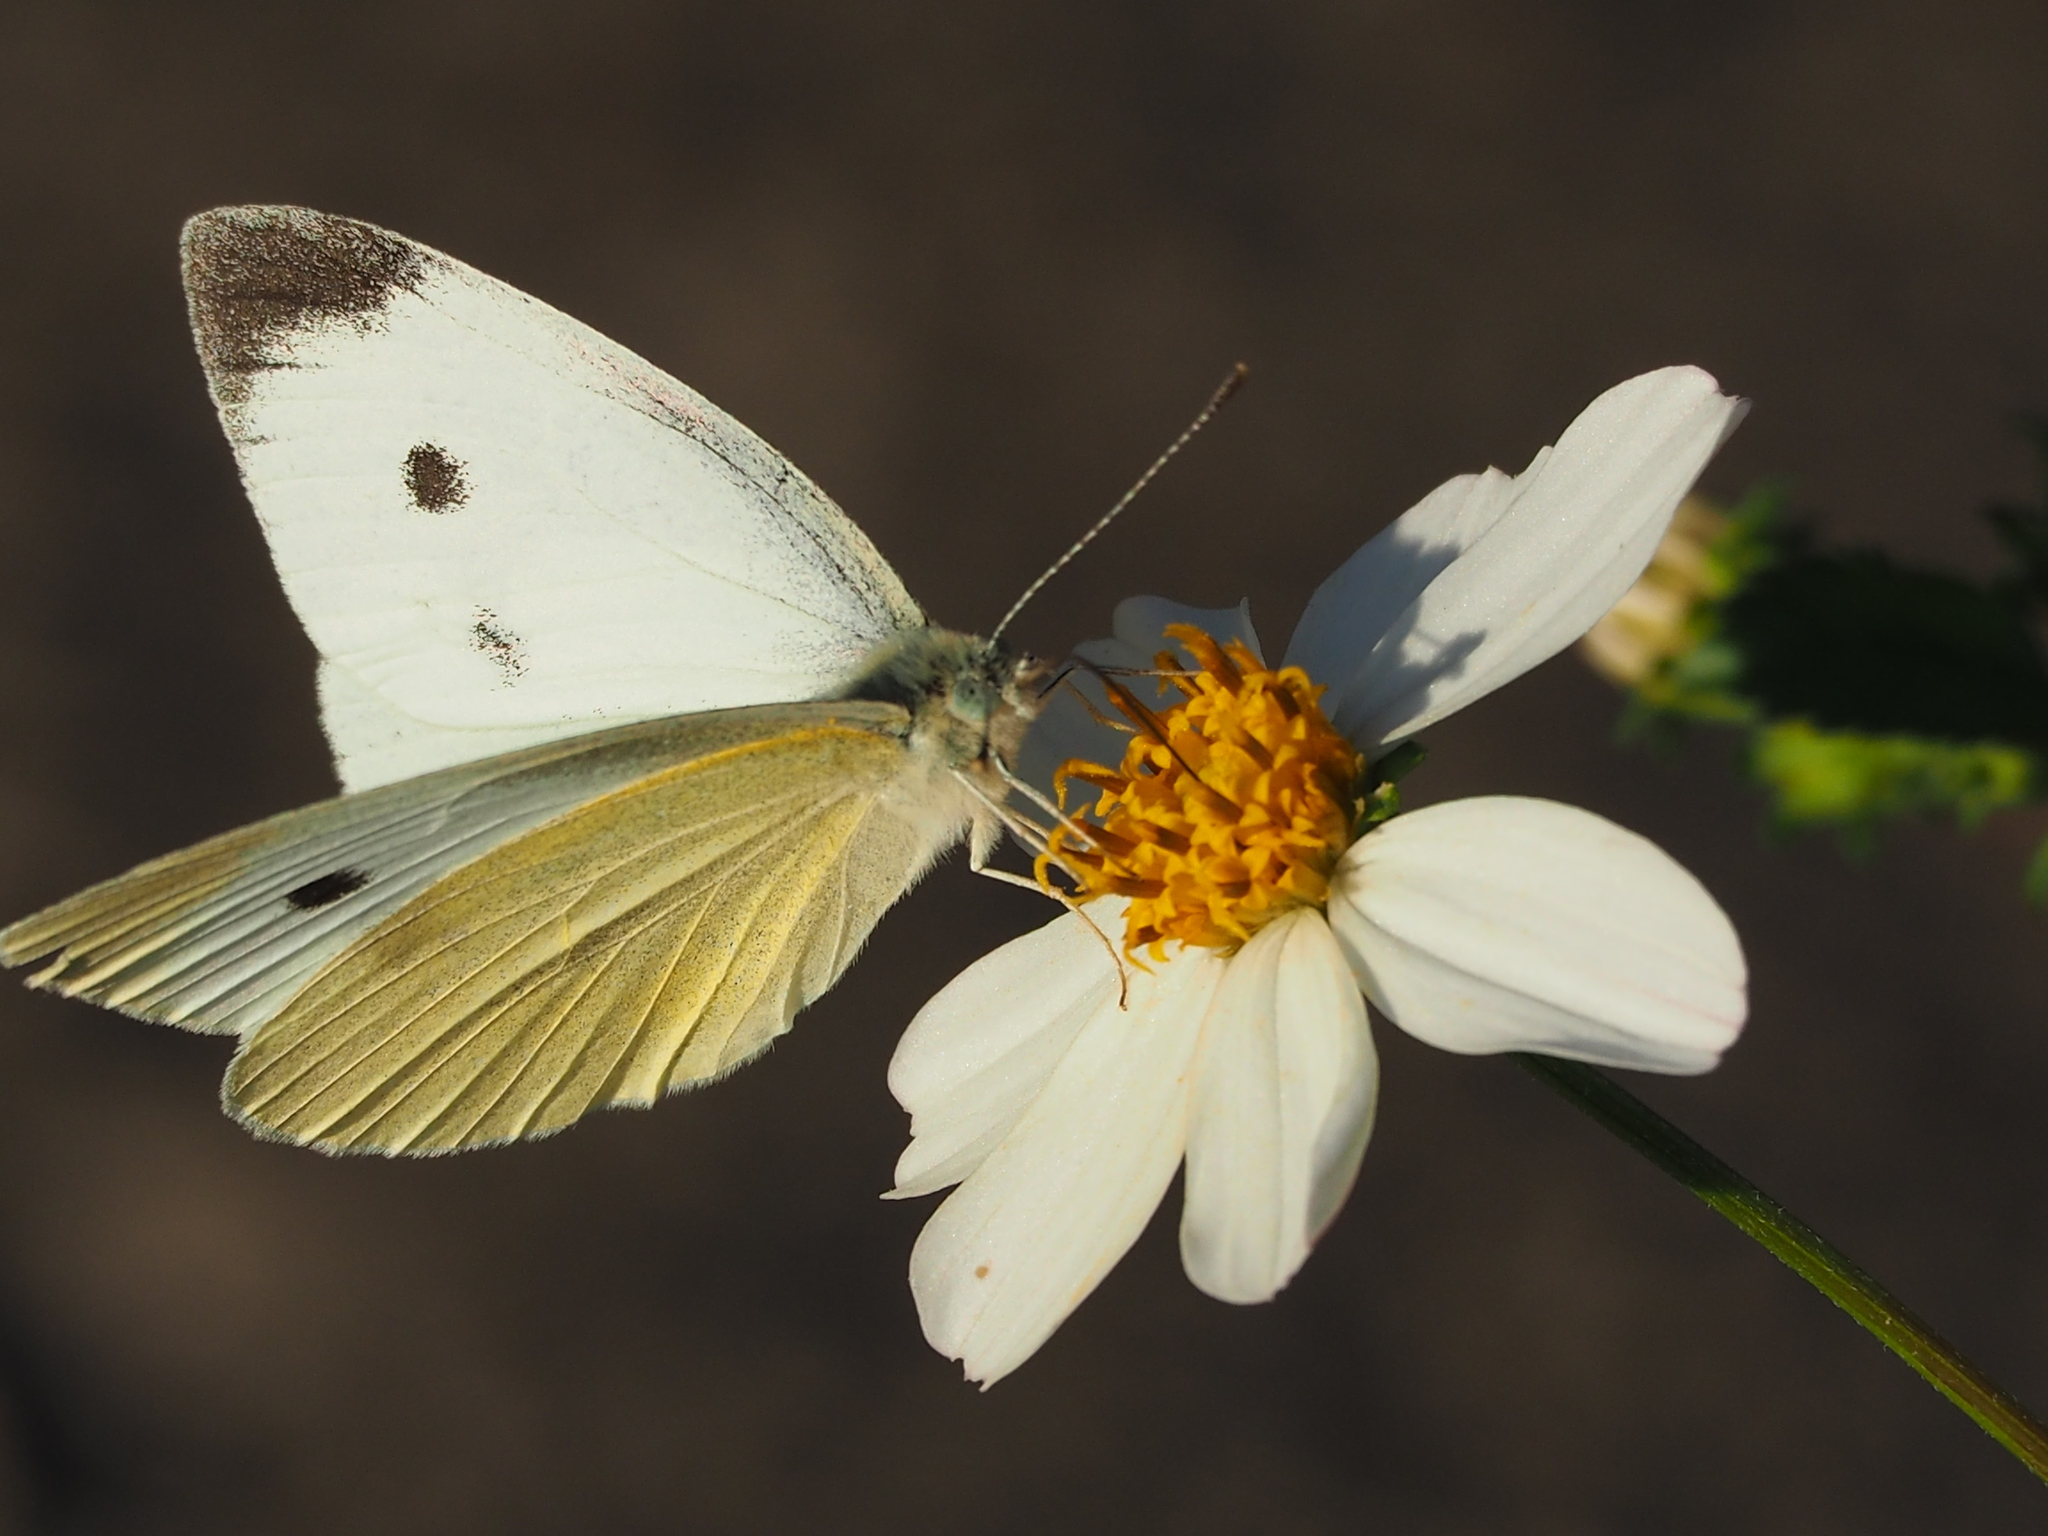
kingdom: Animalia
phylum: Arthropoda
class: Insecta
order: Lepidoptera
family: Pieridae
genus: Pieris
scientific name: Pieris rapae
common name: Small white
